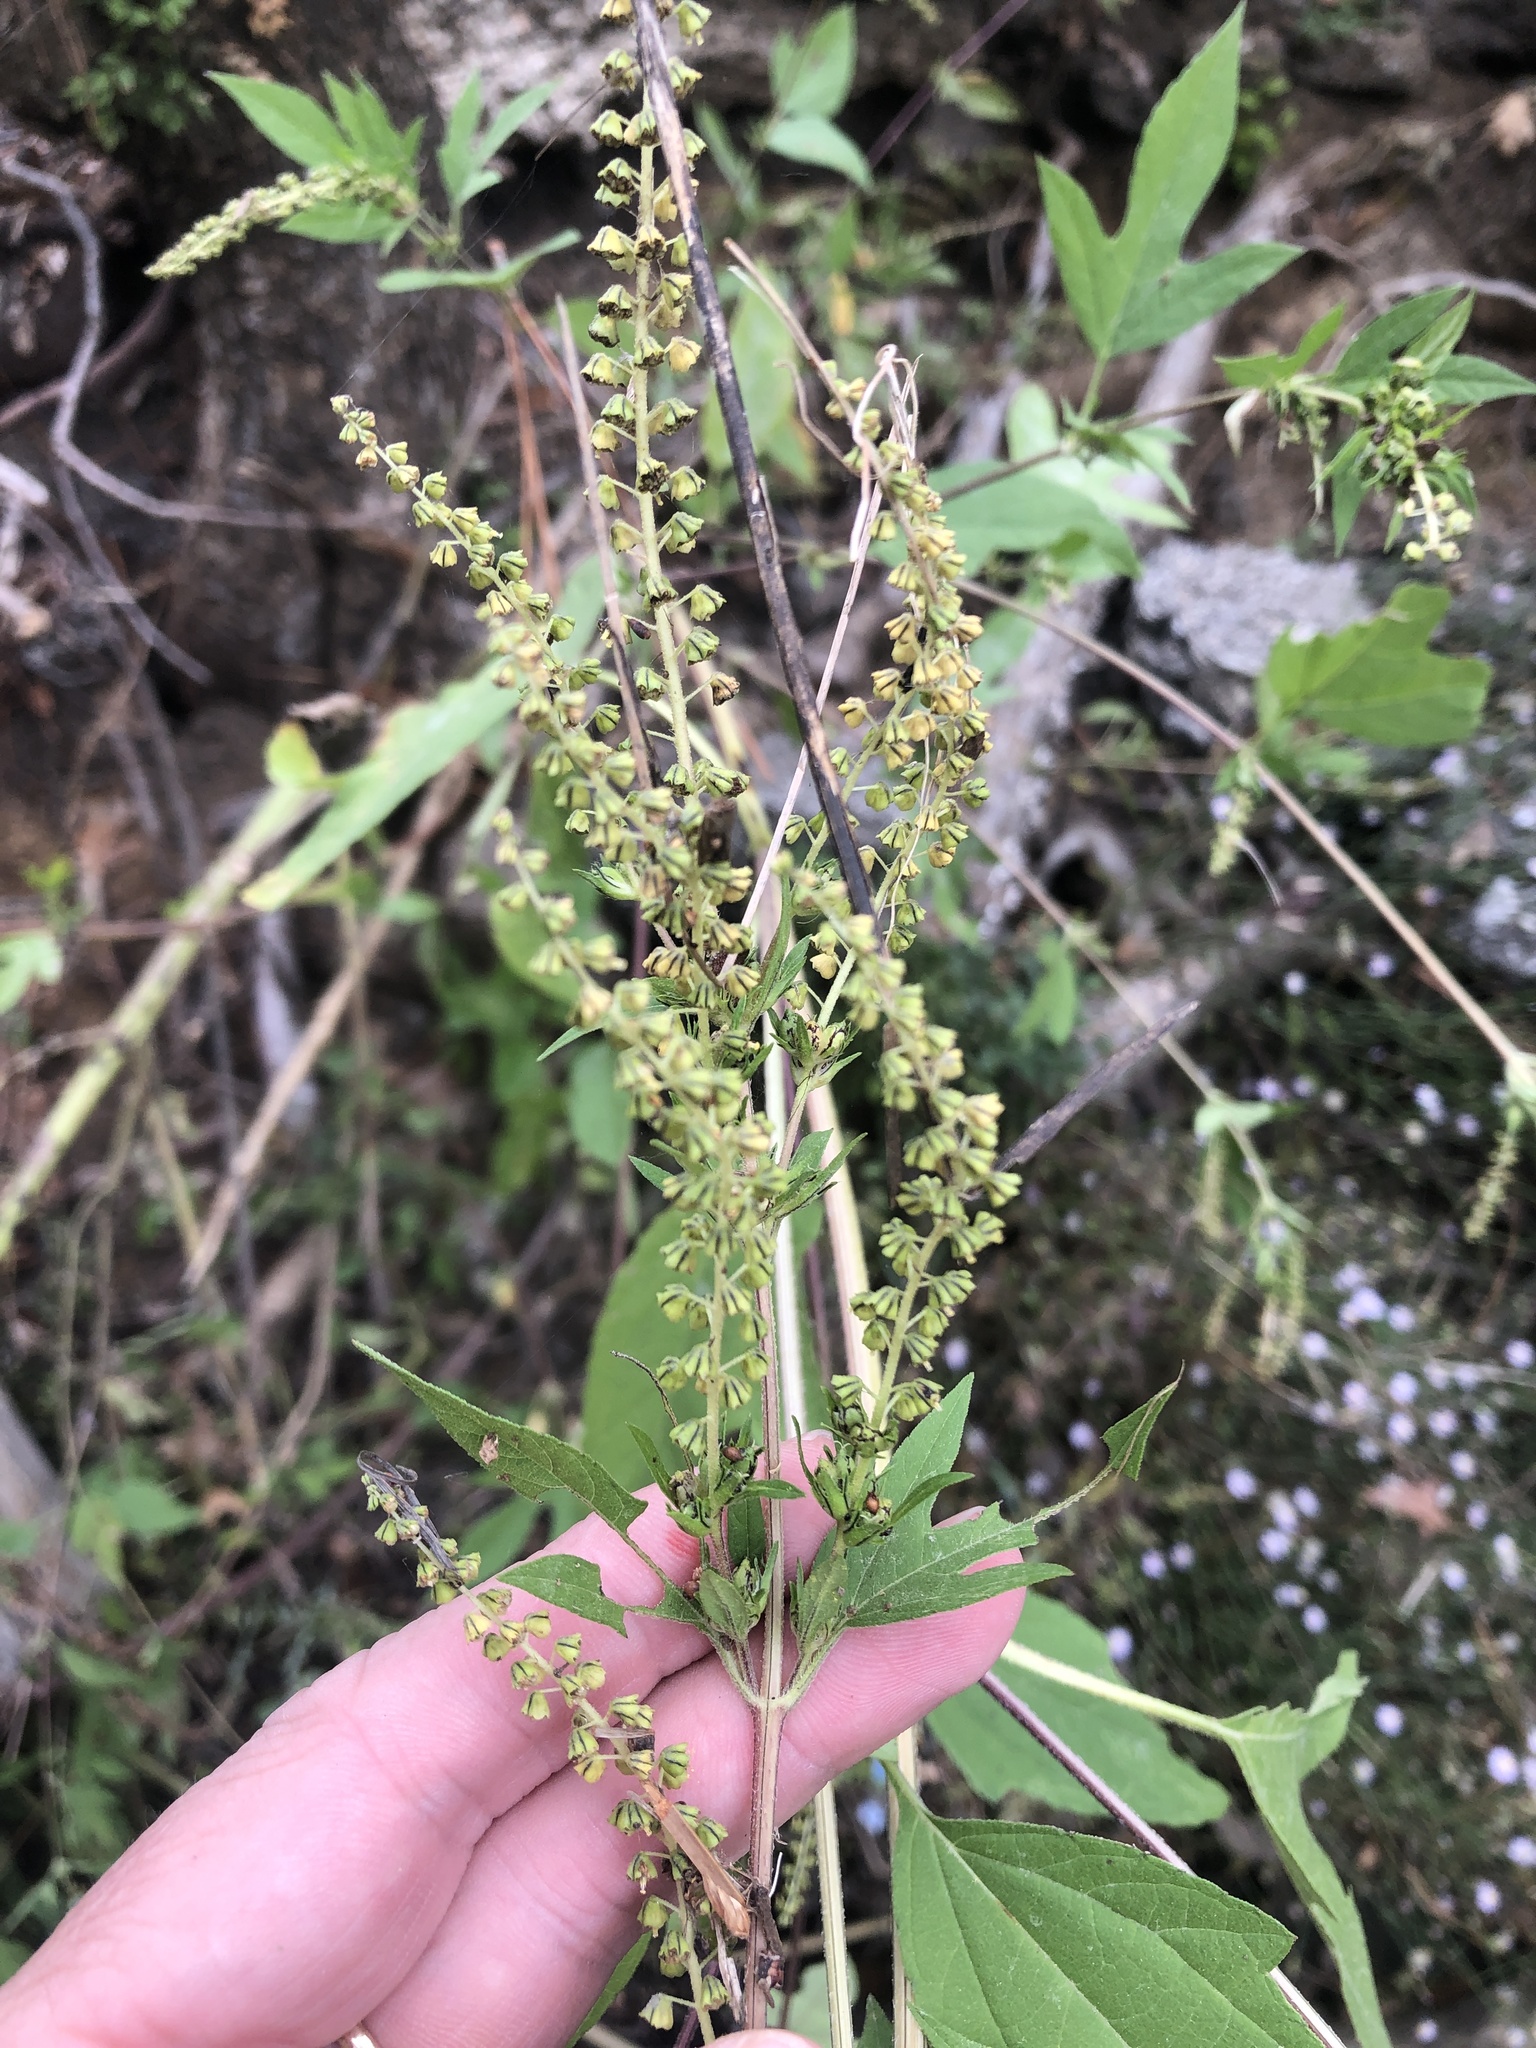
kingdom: Plantae
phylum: Tracheophyta
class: Magnoliopsida
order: Asterales
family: Asteraceae
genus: Ambrosia
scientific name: Ambrosia trifida
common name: Giant ragweed
